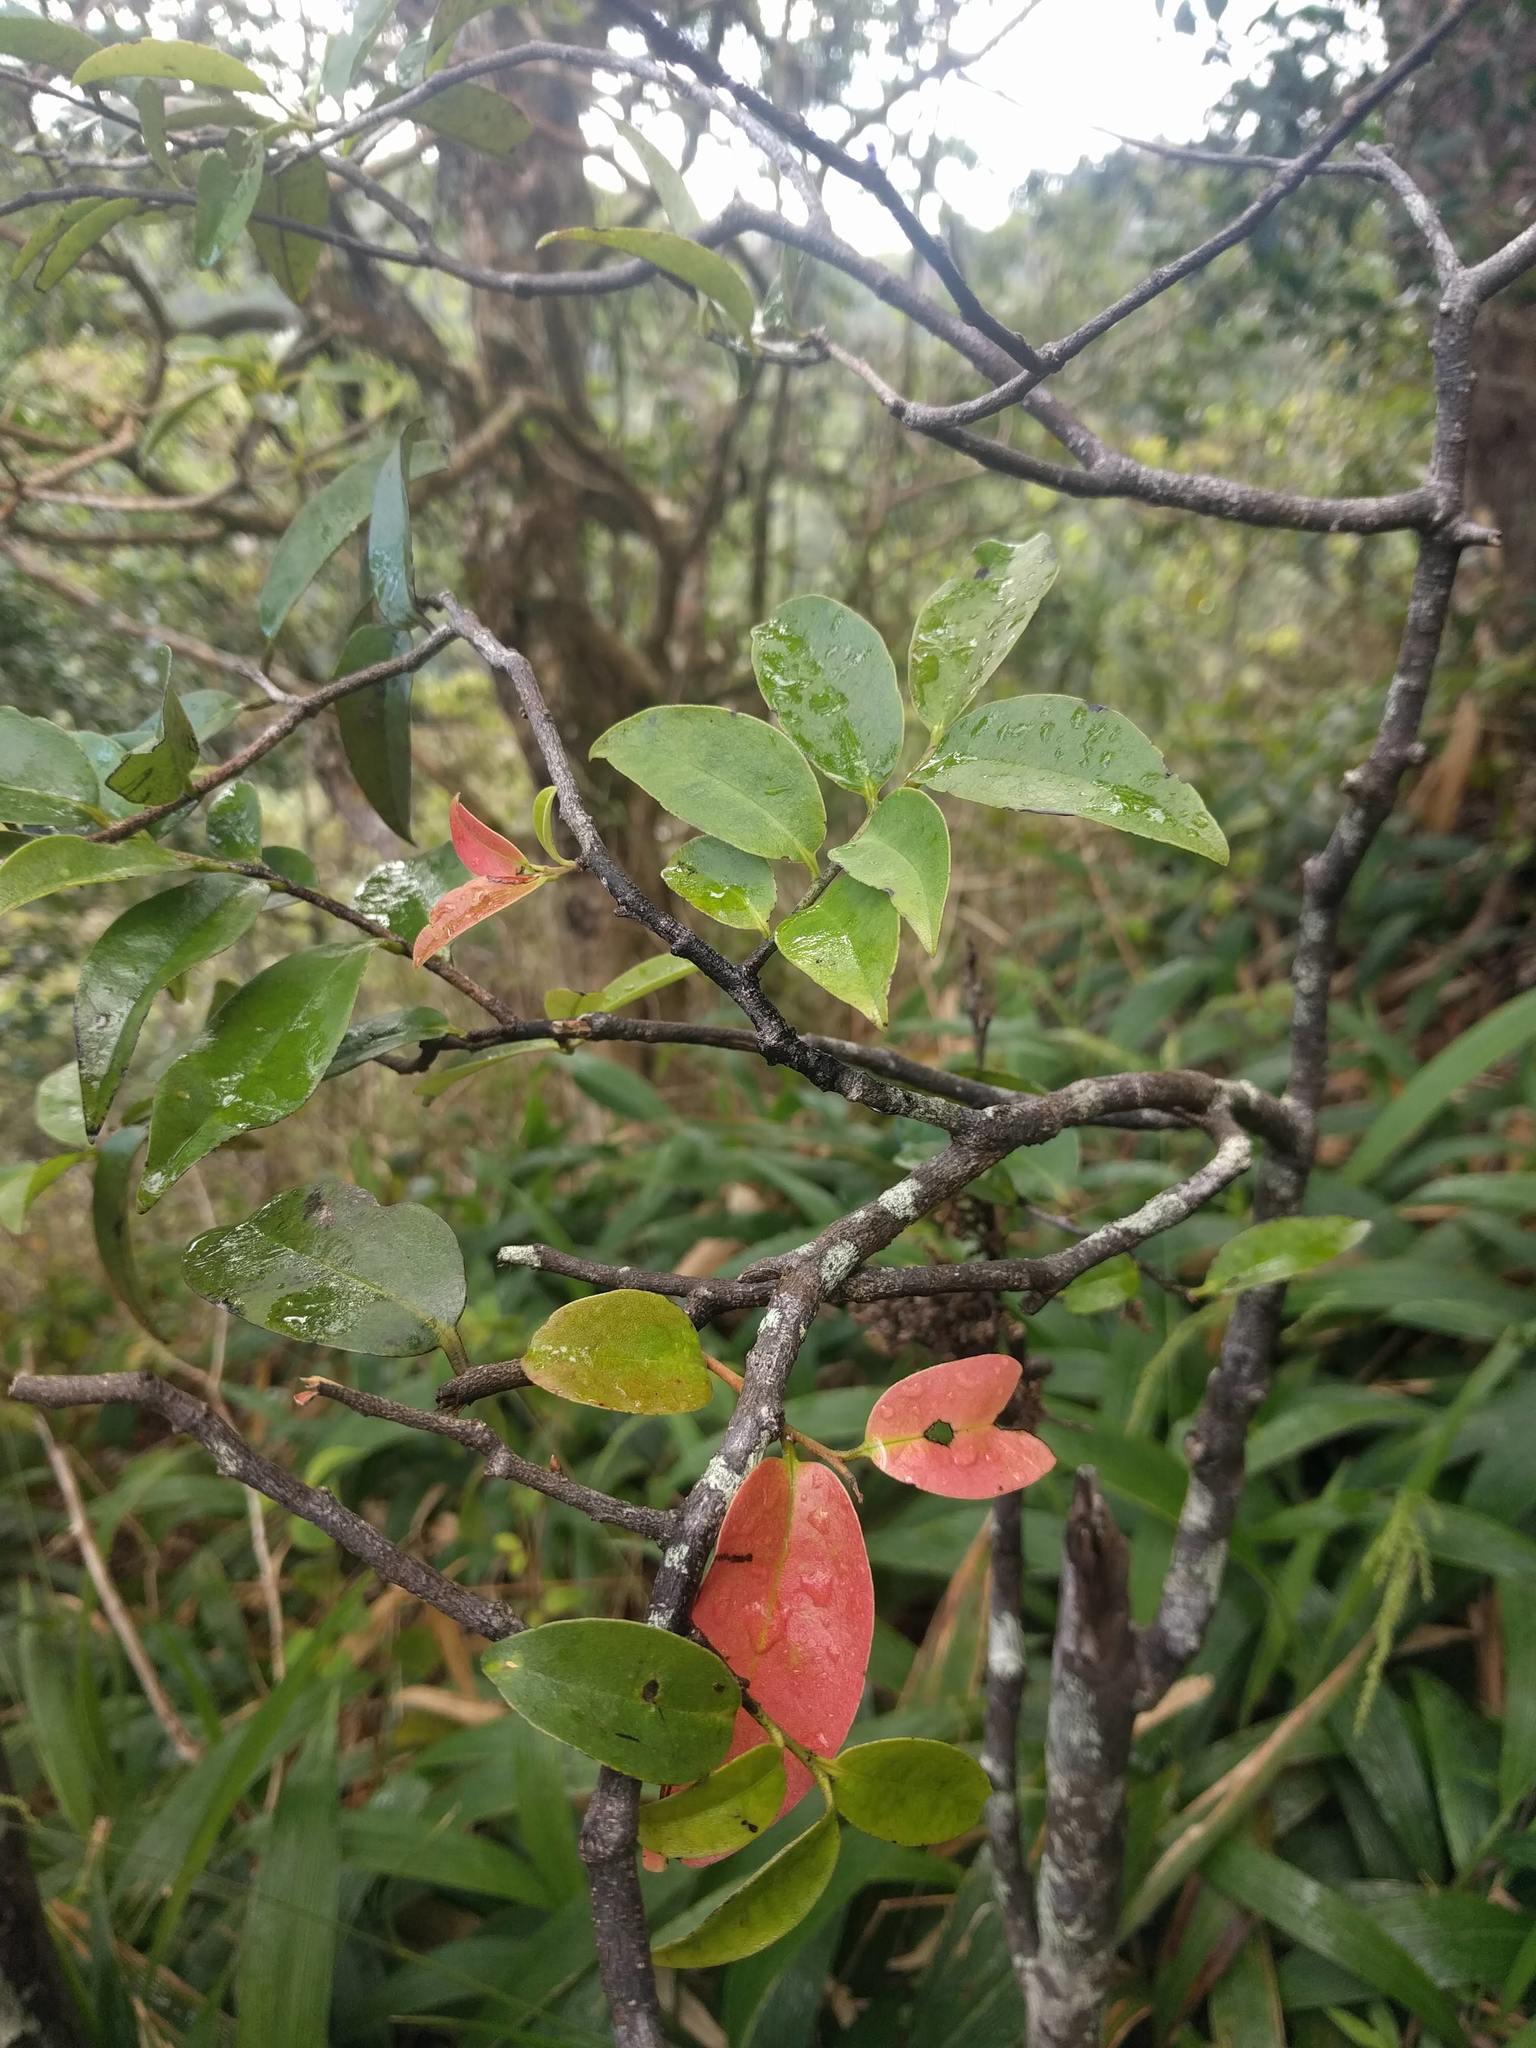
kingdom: Plantae
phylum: Tracheophyta
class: Magnoliopsida
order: Ericales
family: Ebenaceae
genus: Diospyros
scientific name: Diospyros sandwicensis
